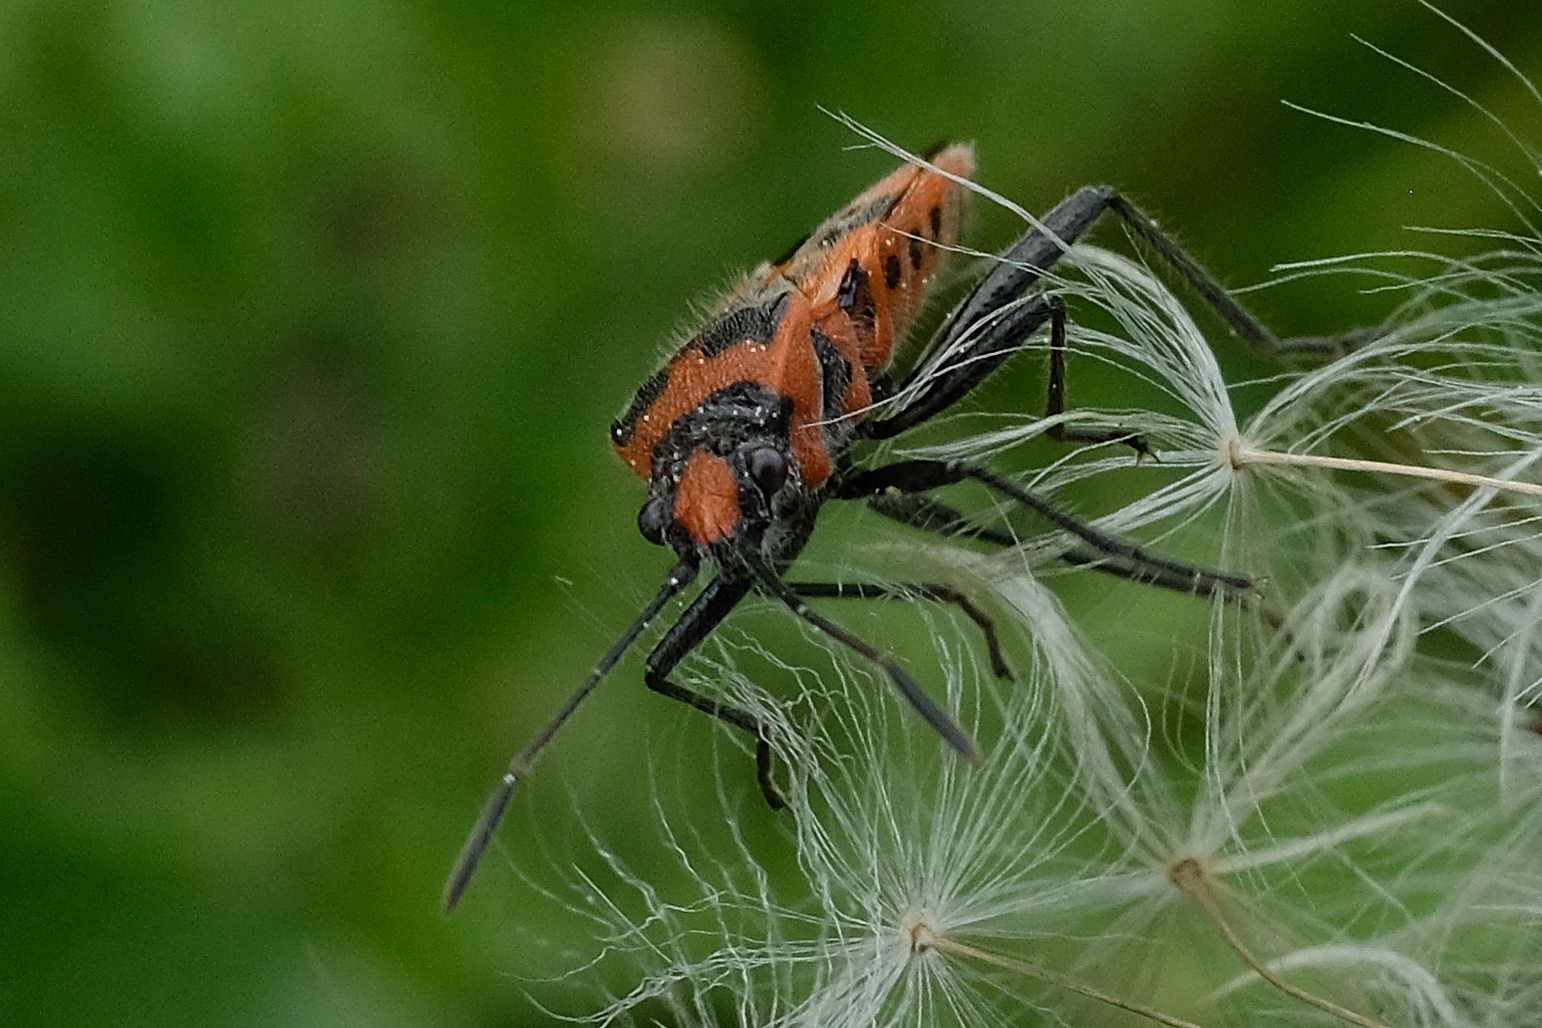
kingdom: Animalia
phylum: Arthropoda
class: Insecta
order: Hemiptera
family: Rhopalidae
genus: Corizus
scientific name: Corizus hyoscyami
